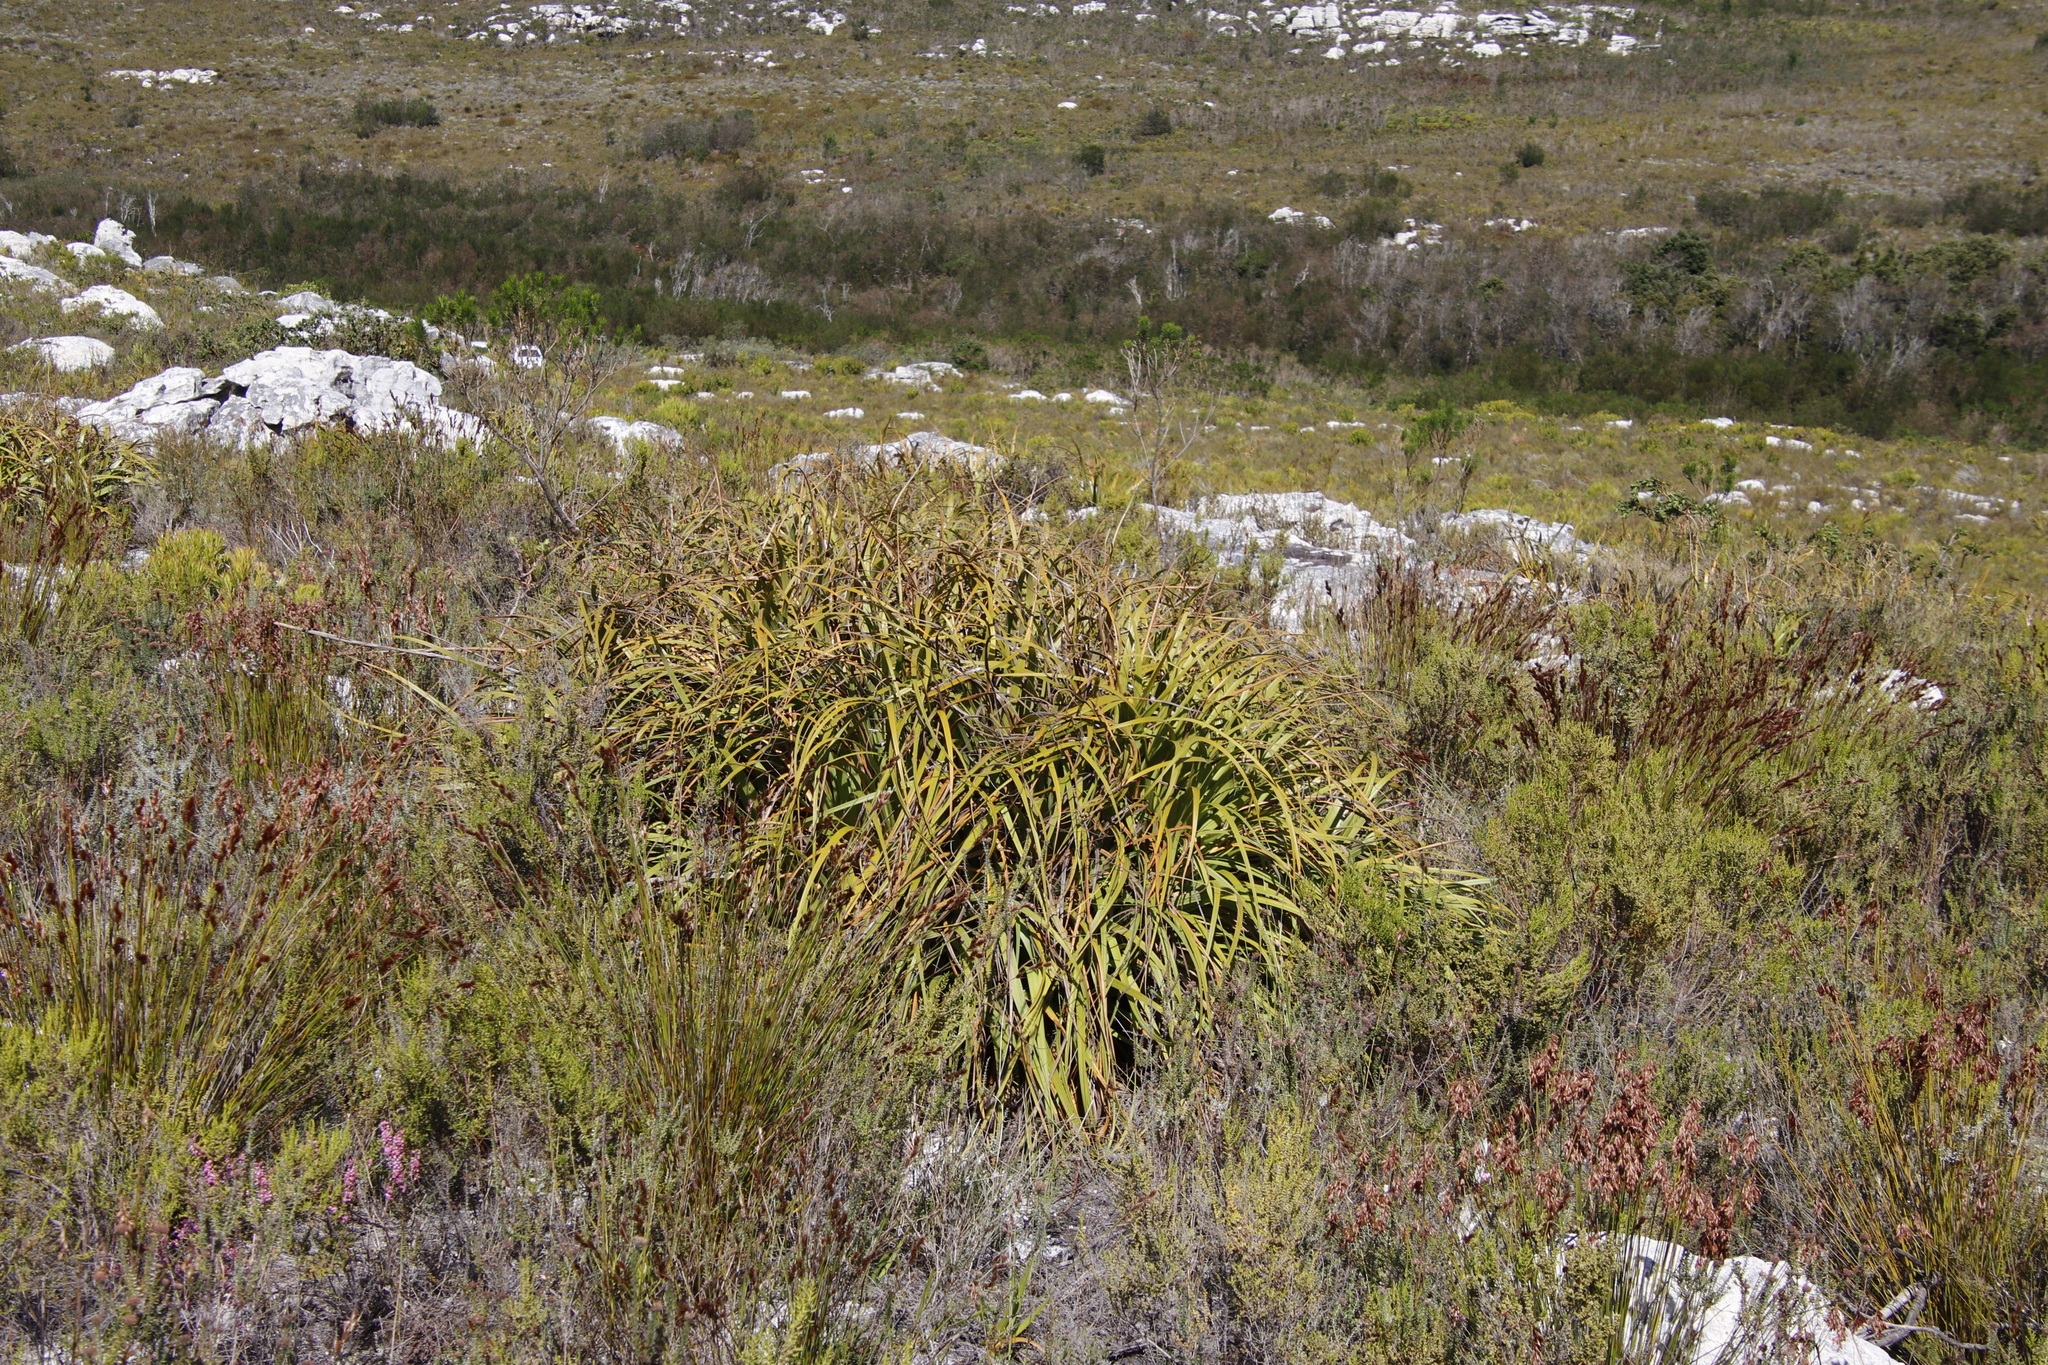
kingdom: Plantae
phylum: Tracheophyta
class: Liliopsida
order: Poales
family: Cyperaceae
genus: Tetraria
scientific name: Tetraria thermalis
